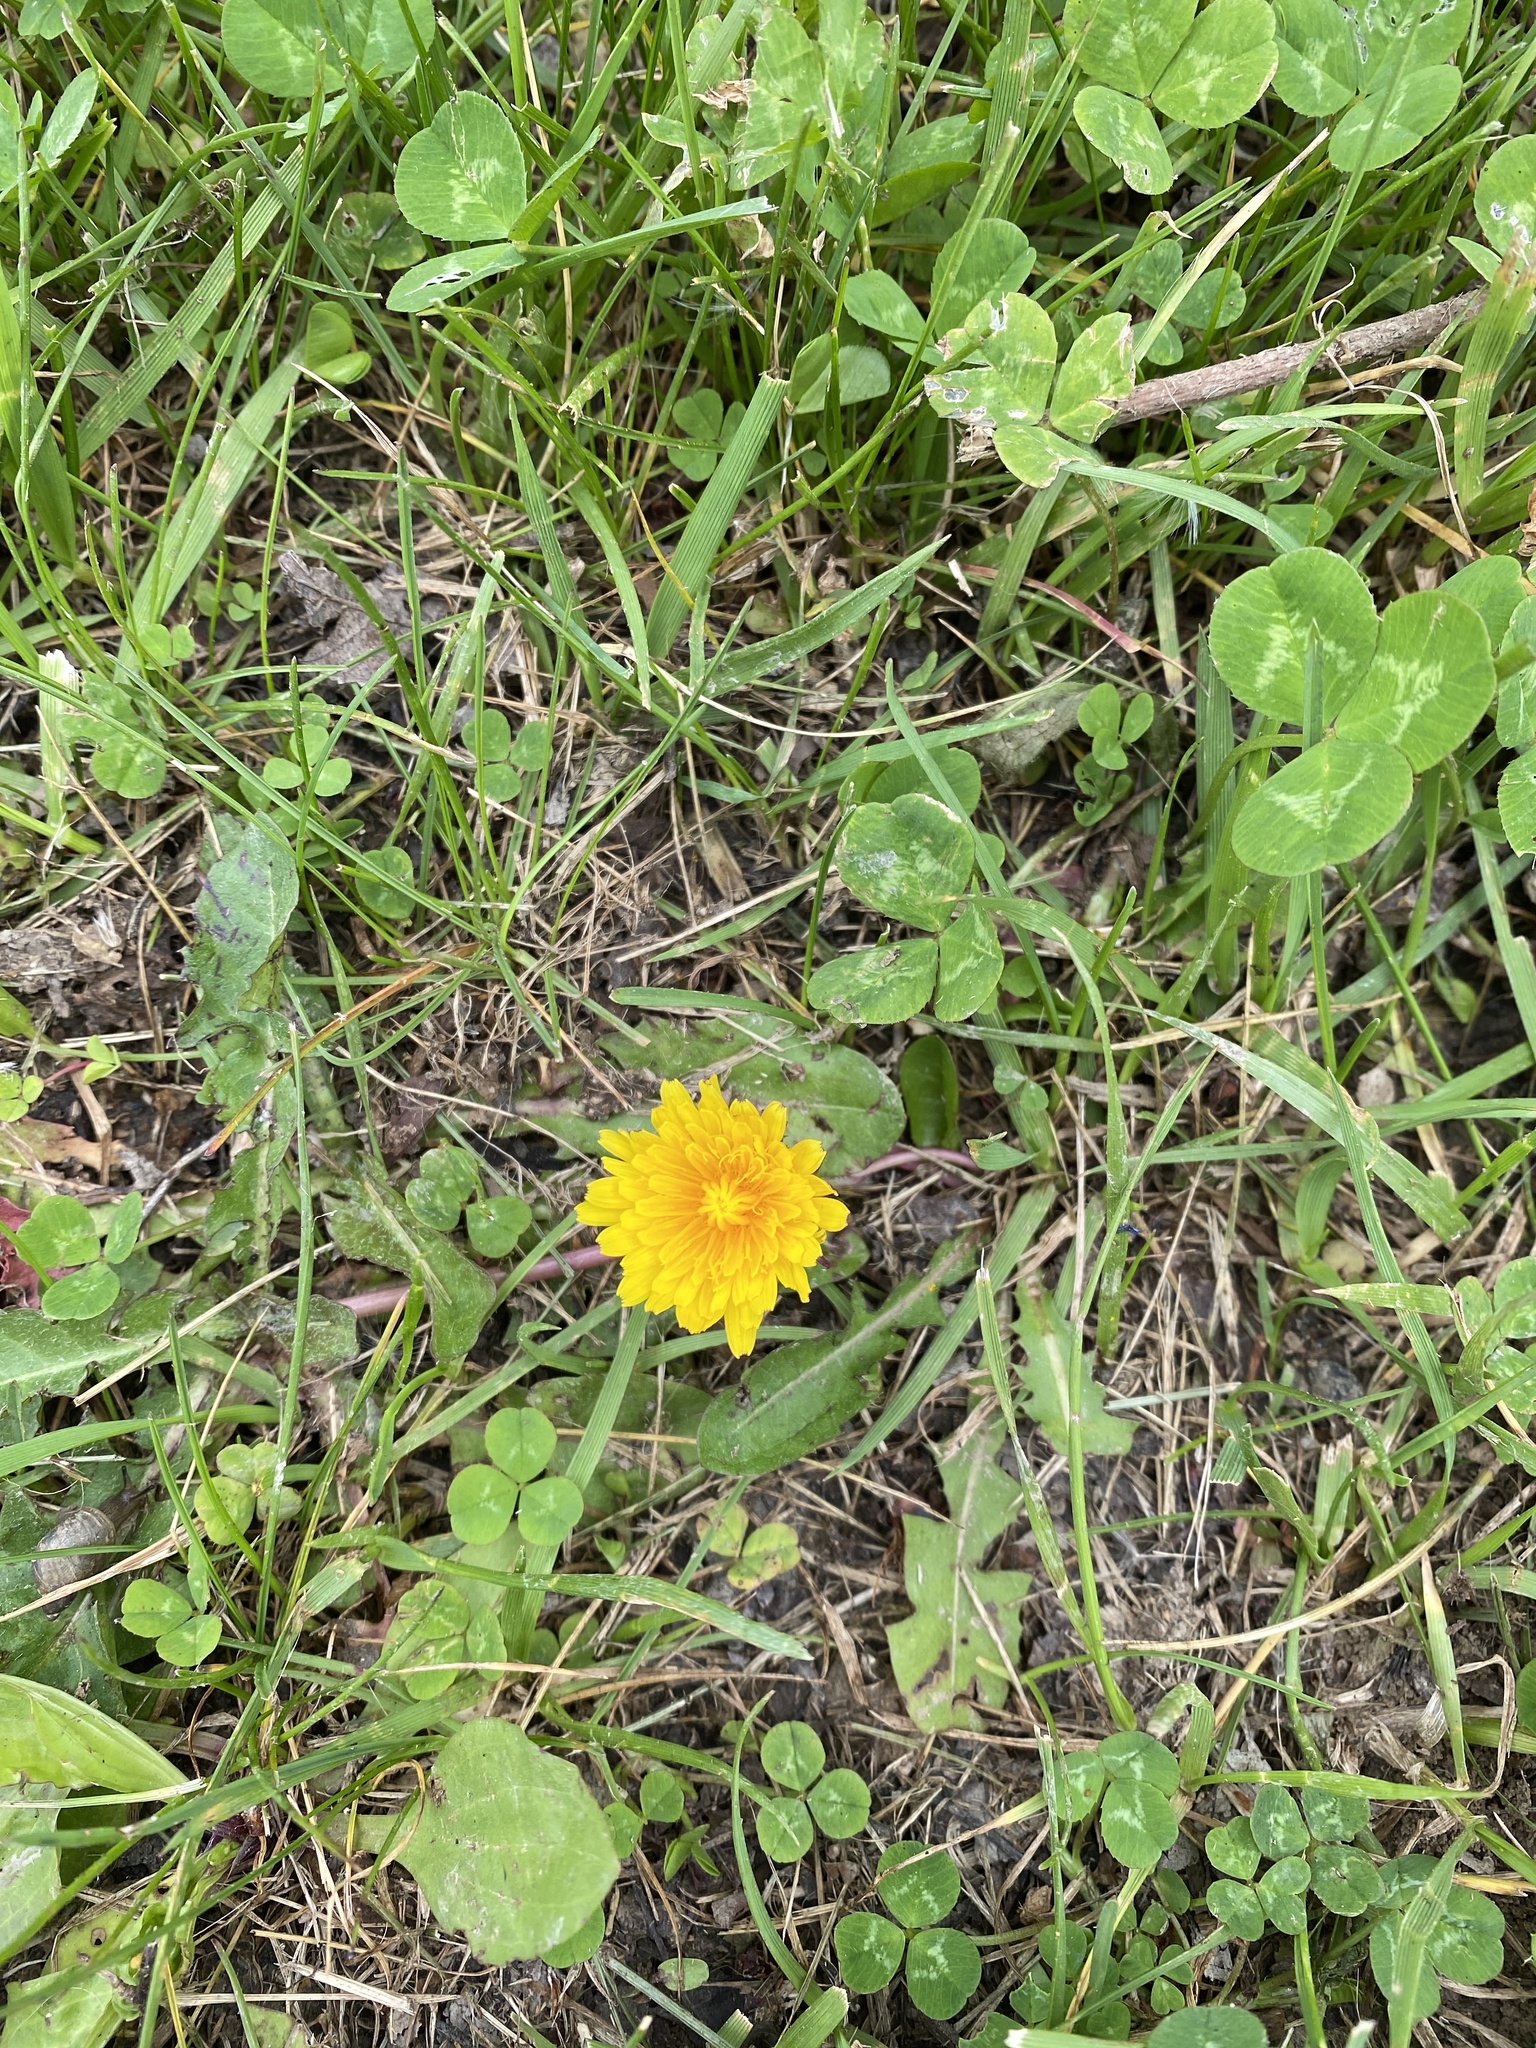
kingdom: Plantae
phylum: Tracheophyta
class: Magnoliopsida
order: Asterales
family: Asteraceae
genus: Taraxacum
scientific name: Taraxacum officinale
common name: Common dandelion
